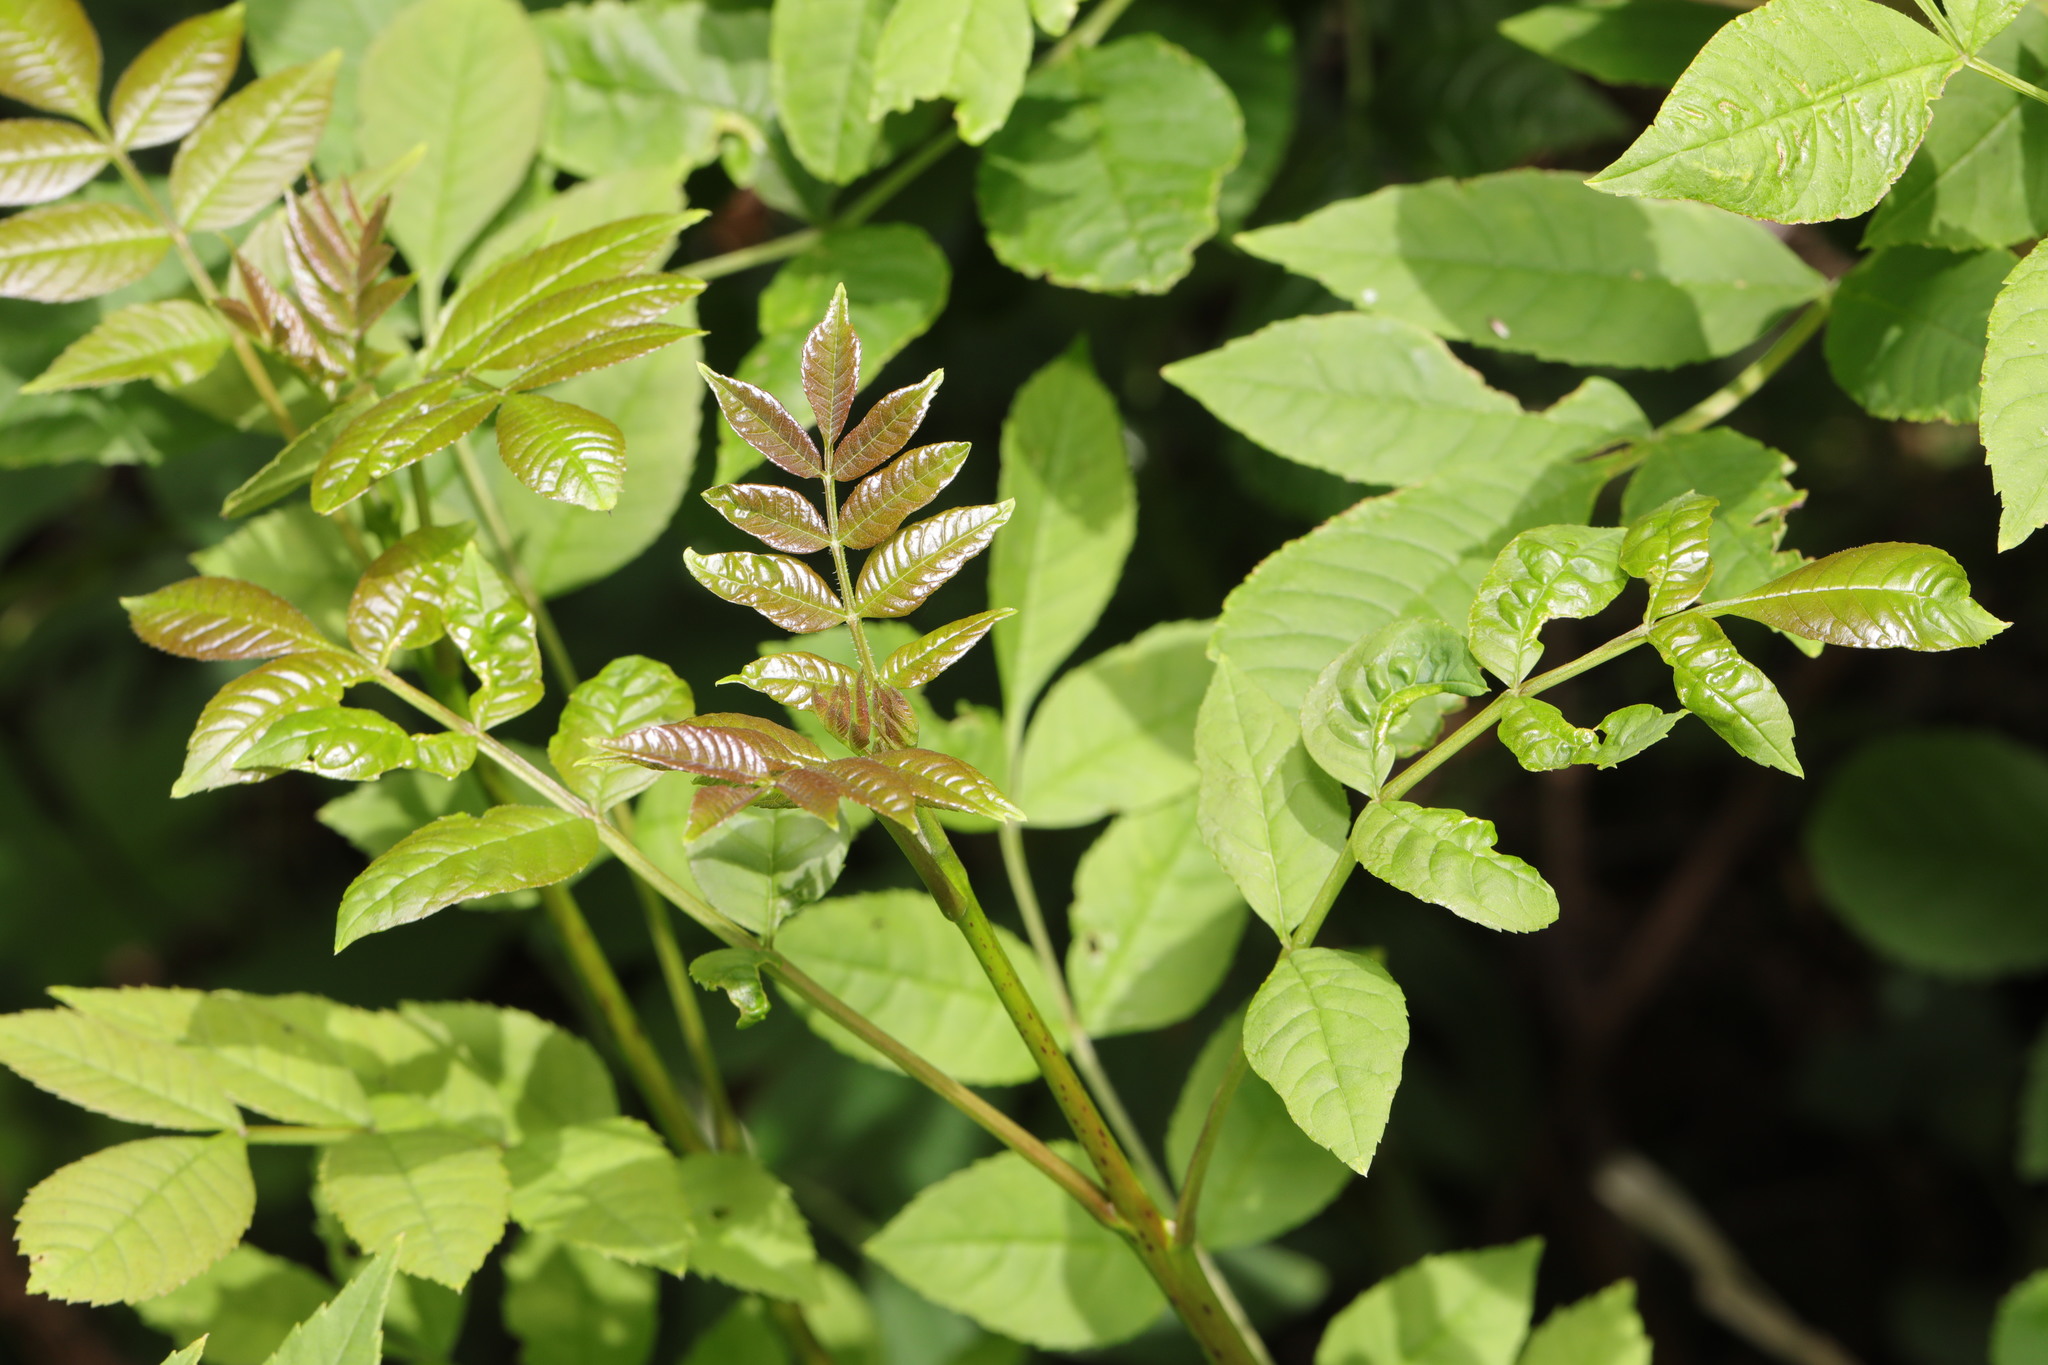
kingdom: Plantae
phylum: Tracheophyta
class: Magnoliopsida
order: Lamiales
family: Oleaceae
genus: Fraxinus
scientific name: Fraxinus excelsior
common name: European ash
